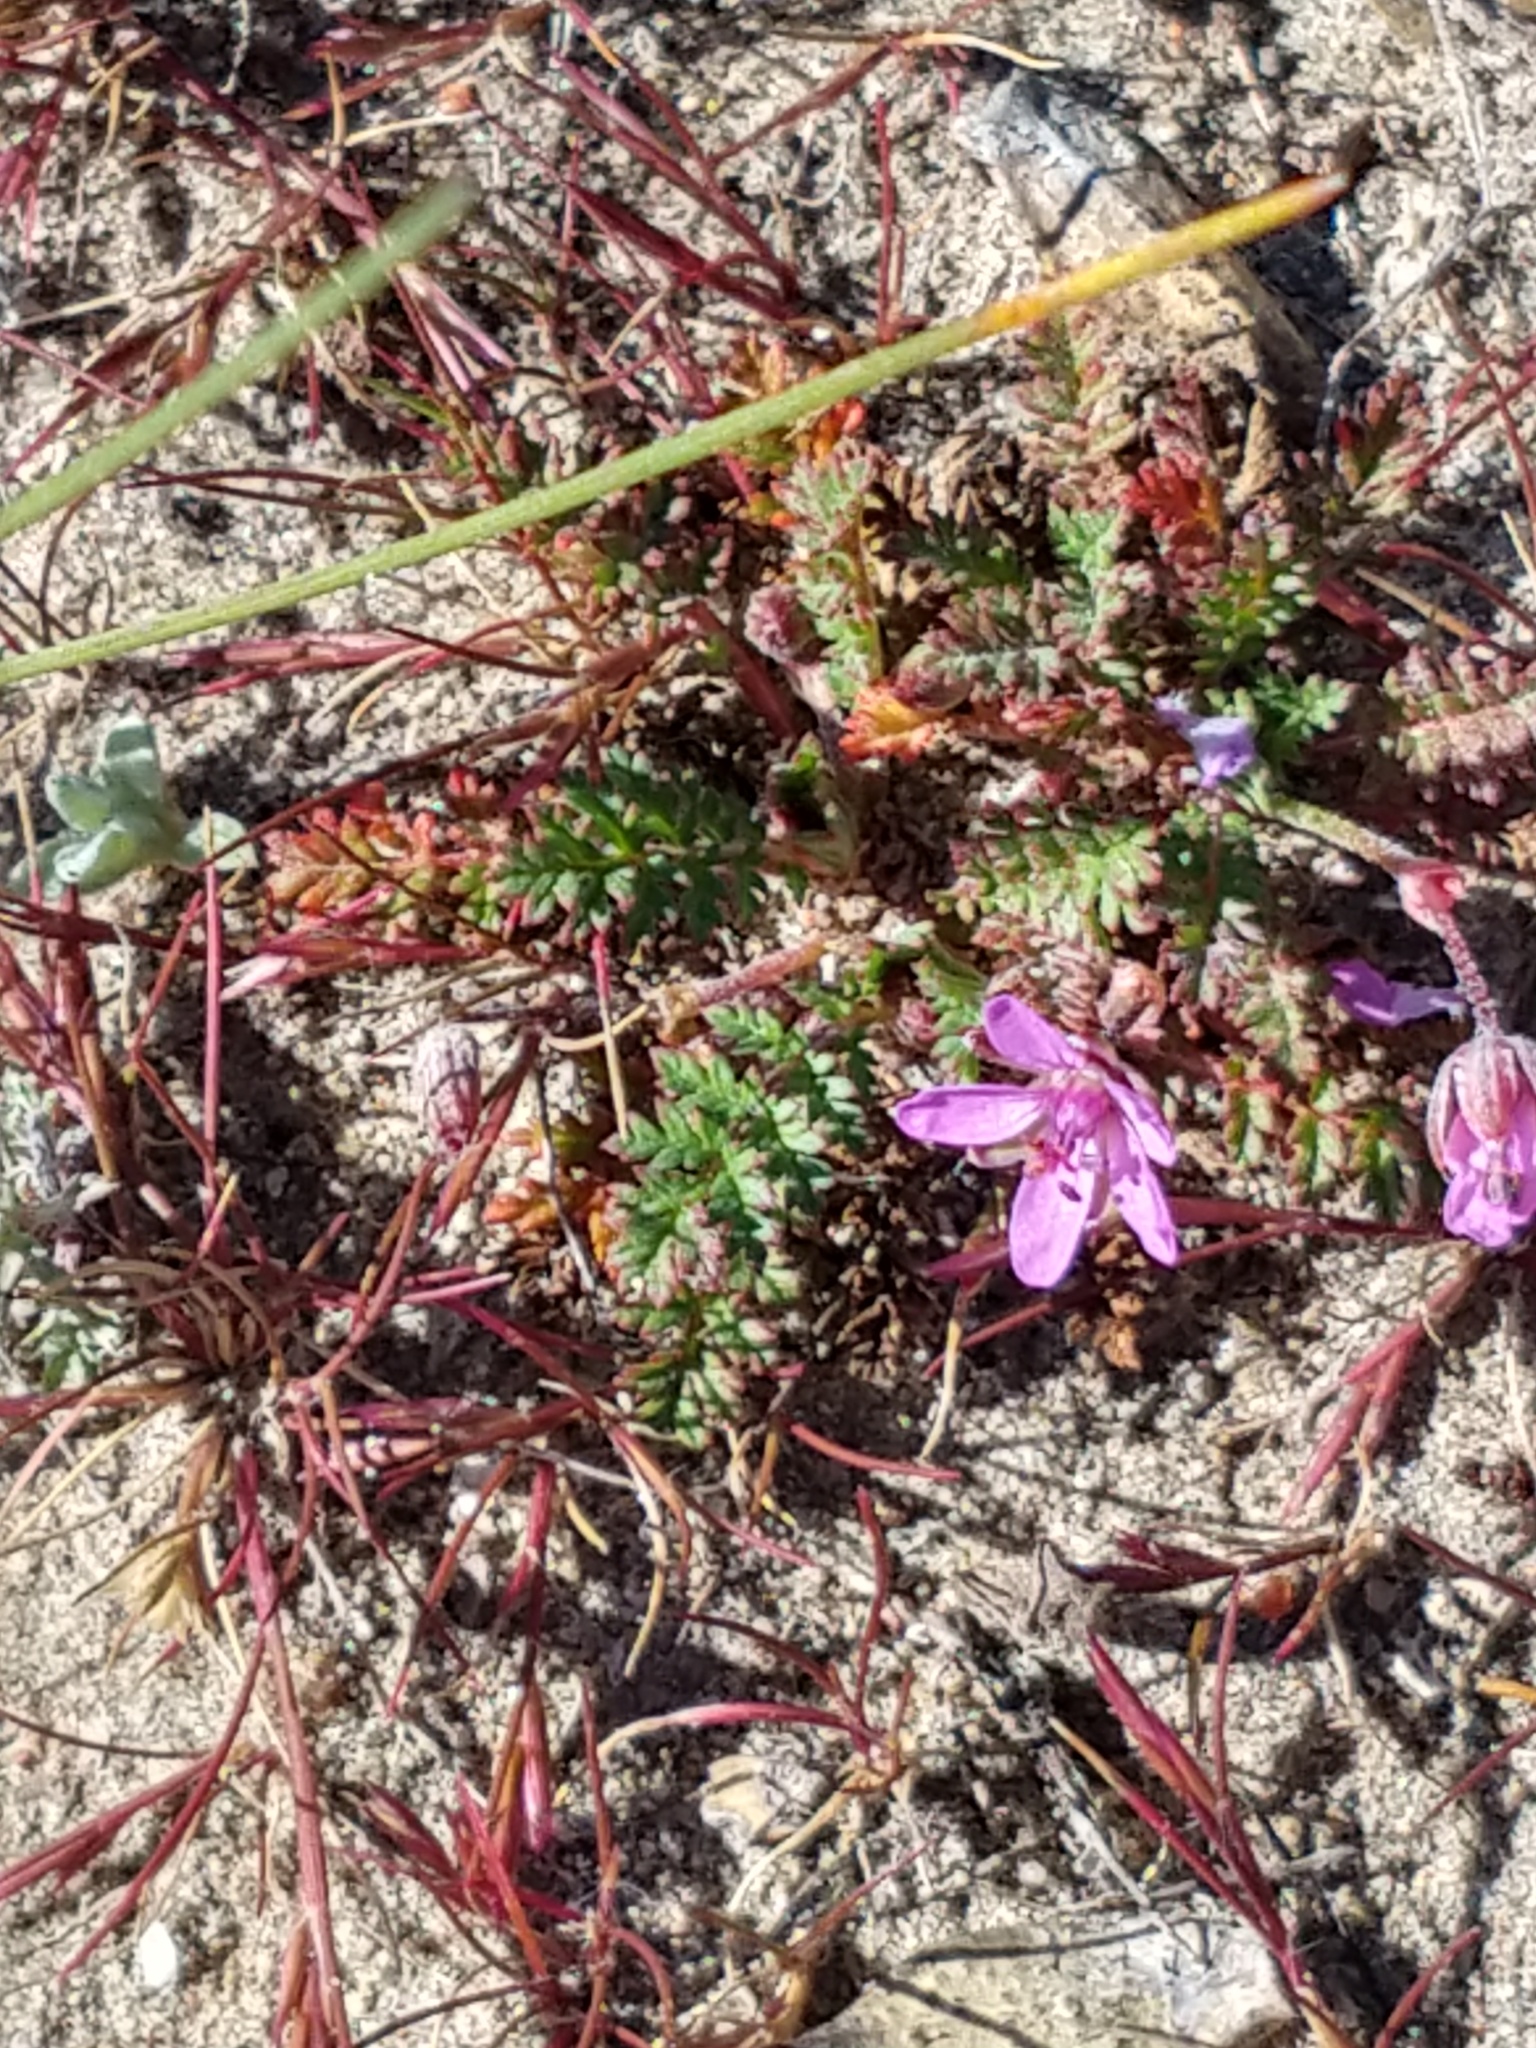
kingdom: Plantae
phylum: Tracheophyta
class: Magnoliopsida
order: Geraniales
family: Geraniaceae
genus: Erodium
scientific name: Erodium cicutarium
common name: Common stork's-bill
